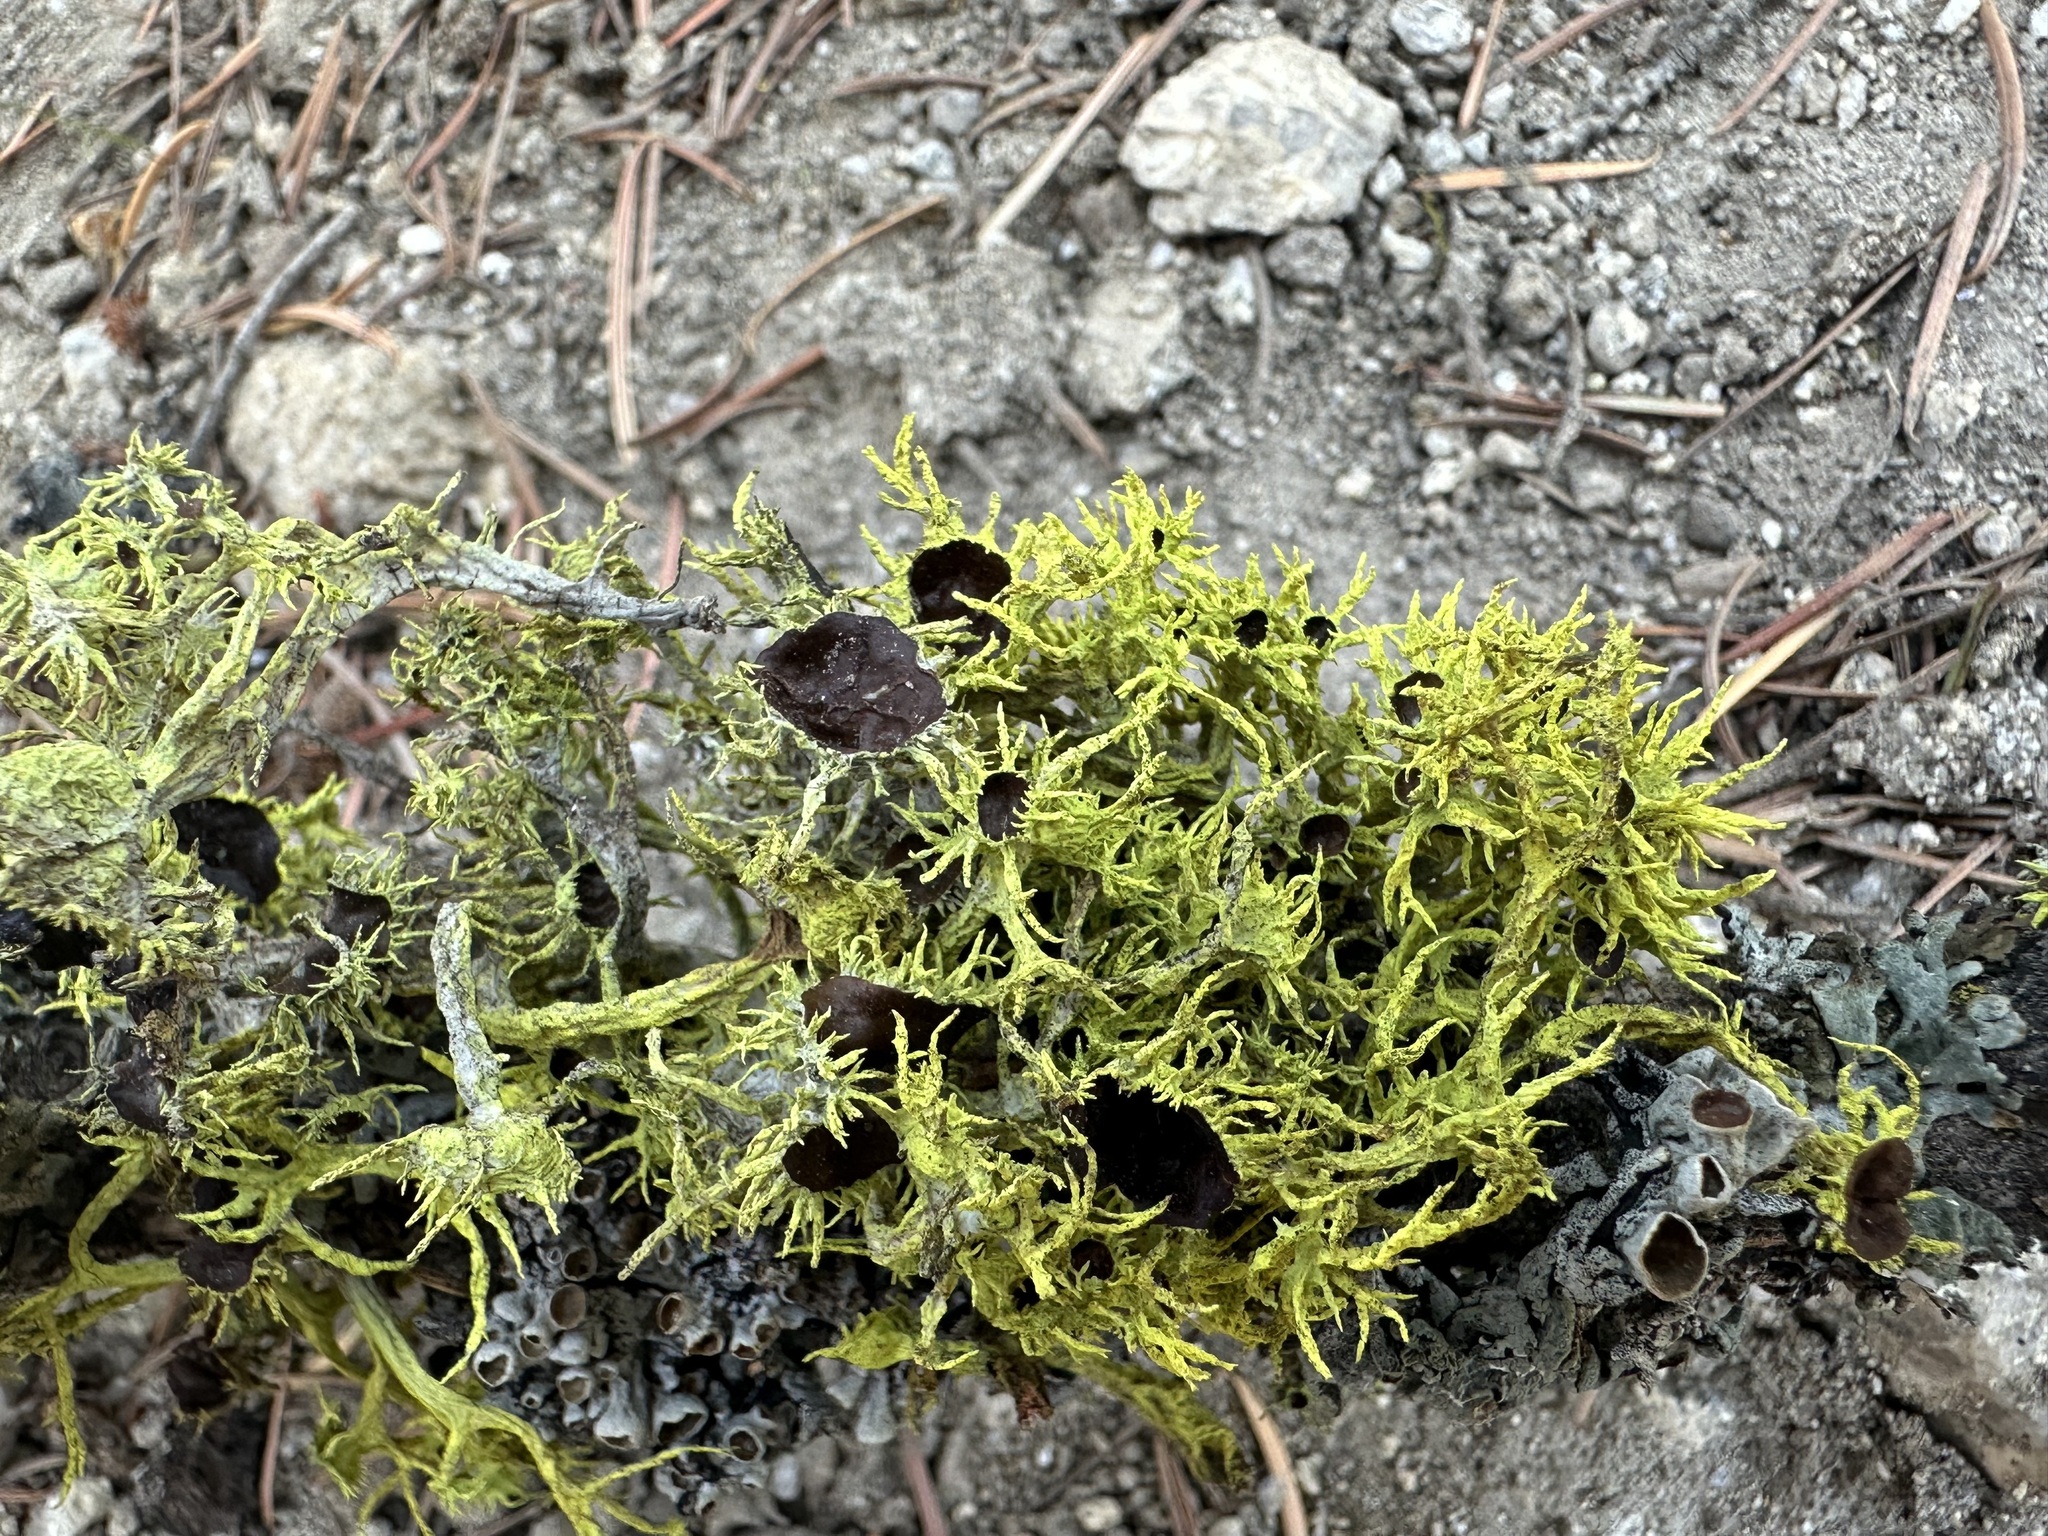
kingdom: Fungi
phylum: Ascomycota
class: Lecanoromycetes
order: Lecanorales
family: Parmeliaceae
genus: Letharia
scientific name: Letharia columbiana
